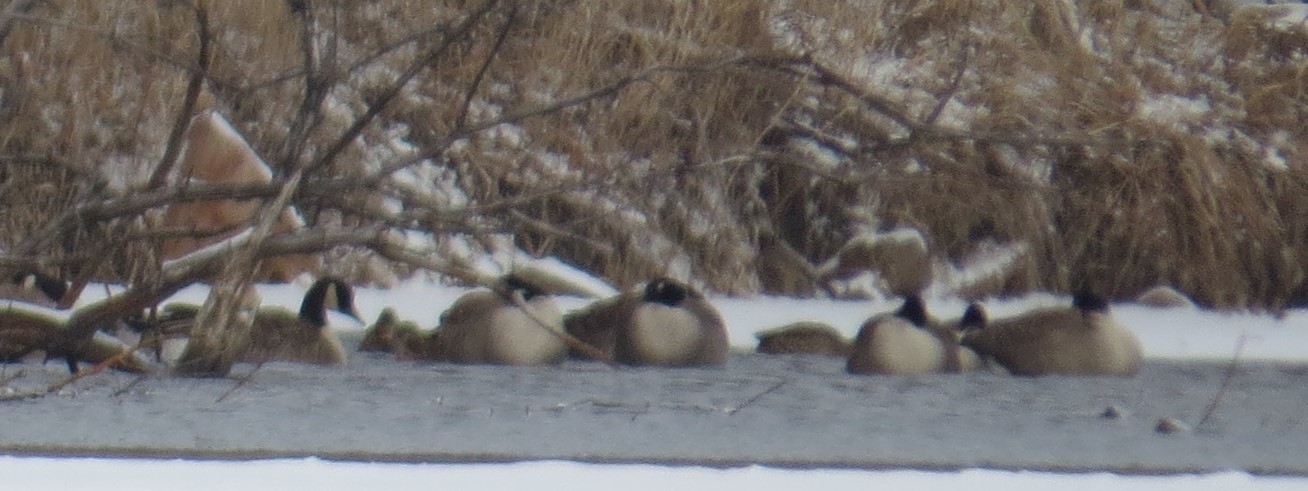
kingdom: Animalia
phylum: Chordata
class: Aves
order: Anseriformes
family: Anatidae
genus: Branta
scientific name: Branta canadensis
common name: Canada goose
